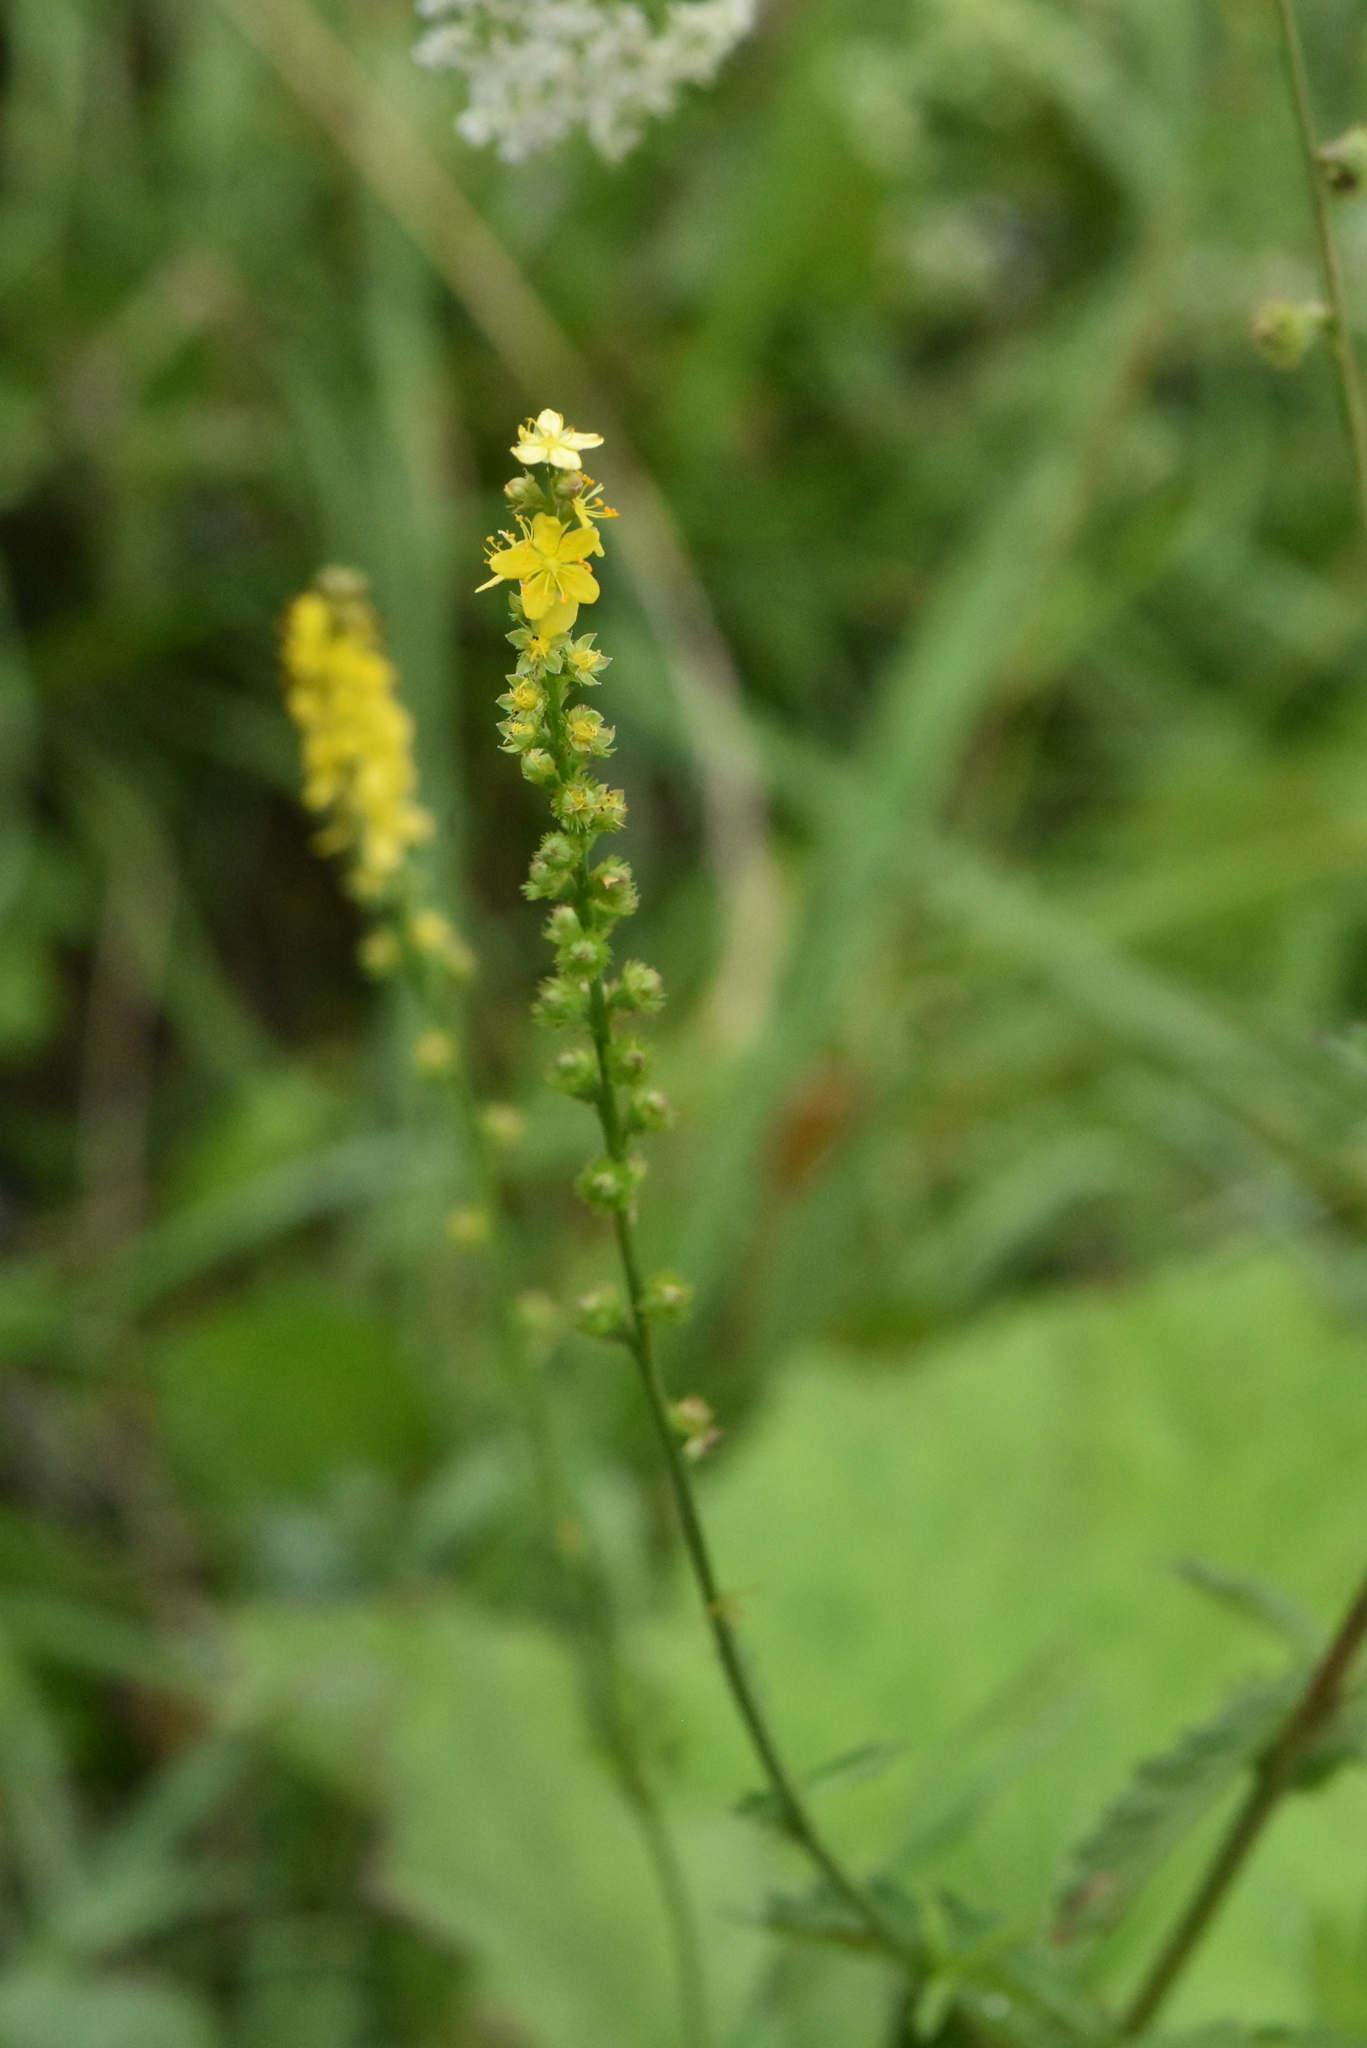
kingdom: Plantae
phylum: Tracheophyta
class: Magnoliopsida
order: Rosales
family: Rosaceae
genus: Agrimonia
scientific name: Agrimonia pilosa
